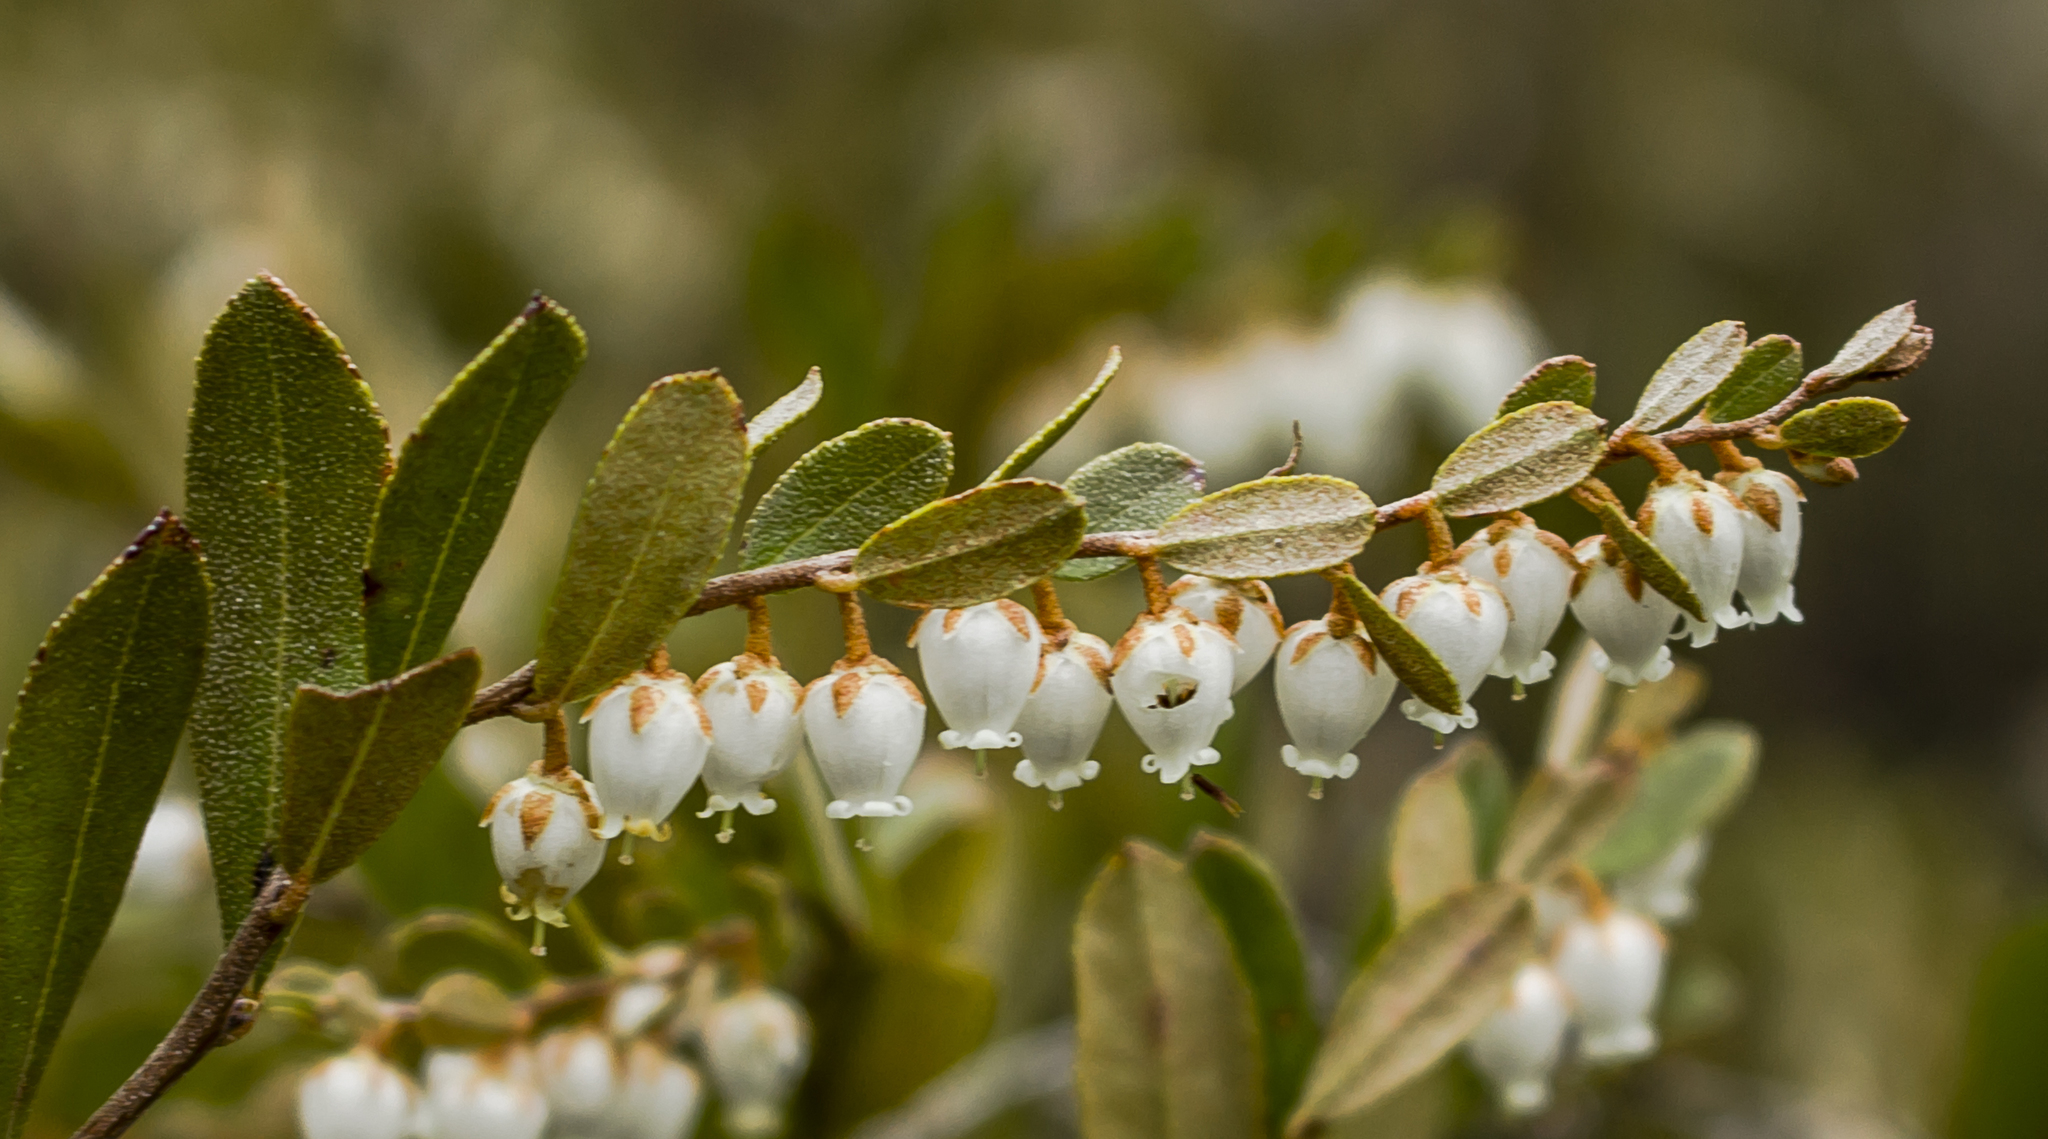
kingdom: Plantae
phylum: Tracheophyta
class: Magnoliopsida
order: Ericales
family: Ericaceae
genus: Chamaedaphne
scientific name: Chamaedaphne calyculata
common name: Leatherleaf
